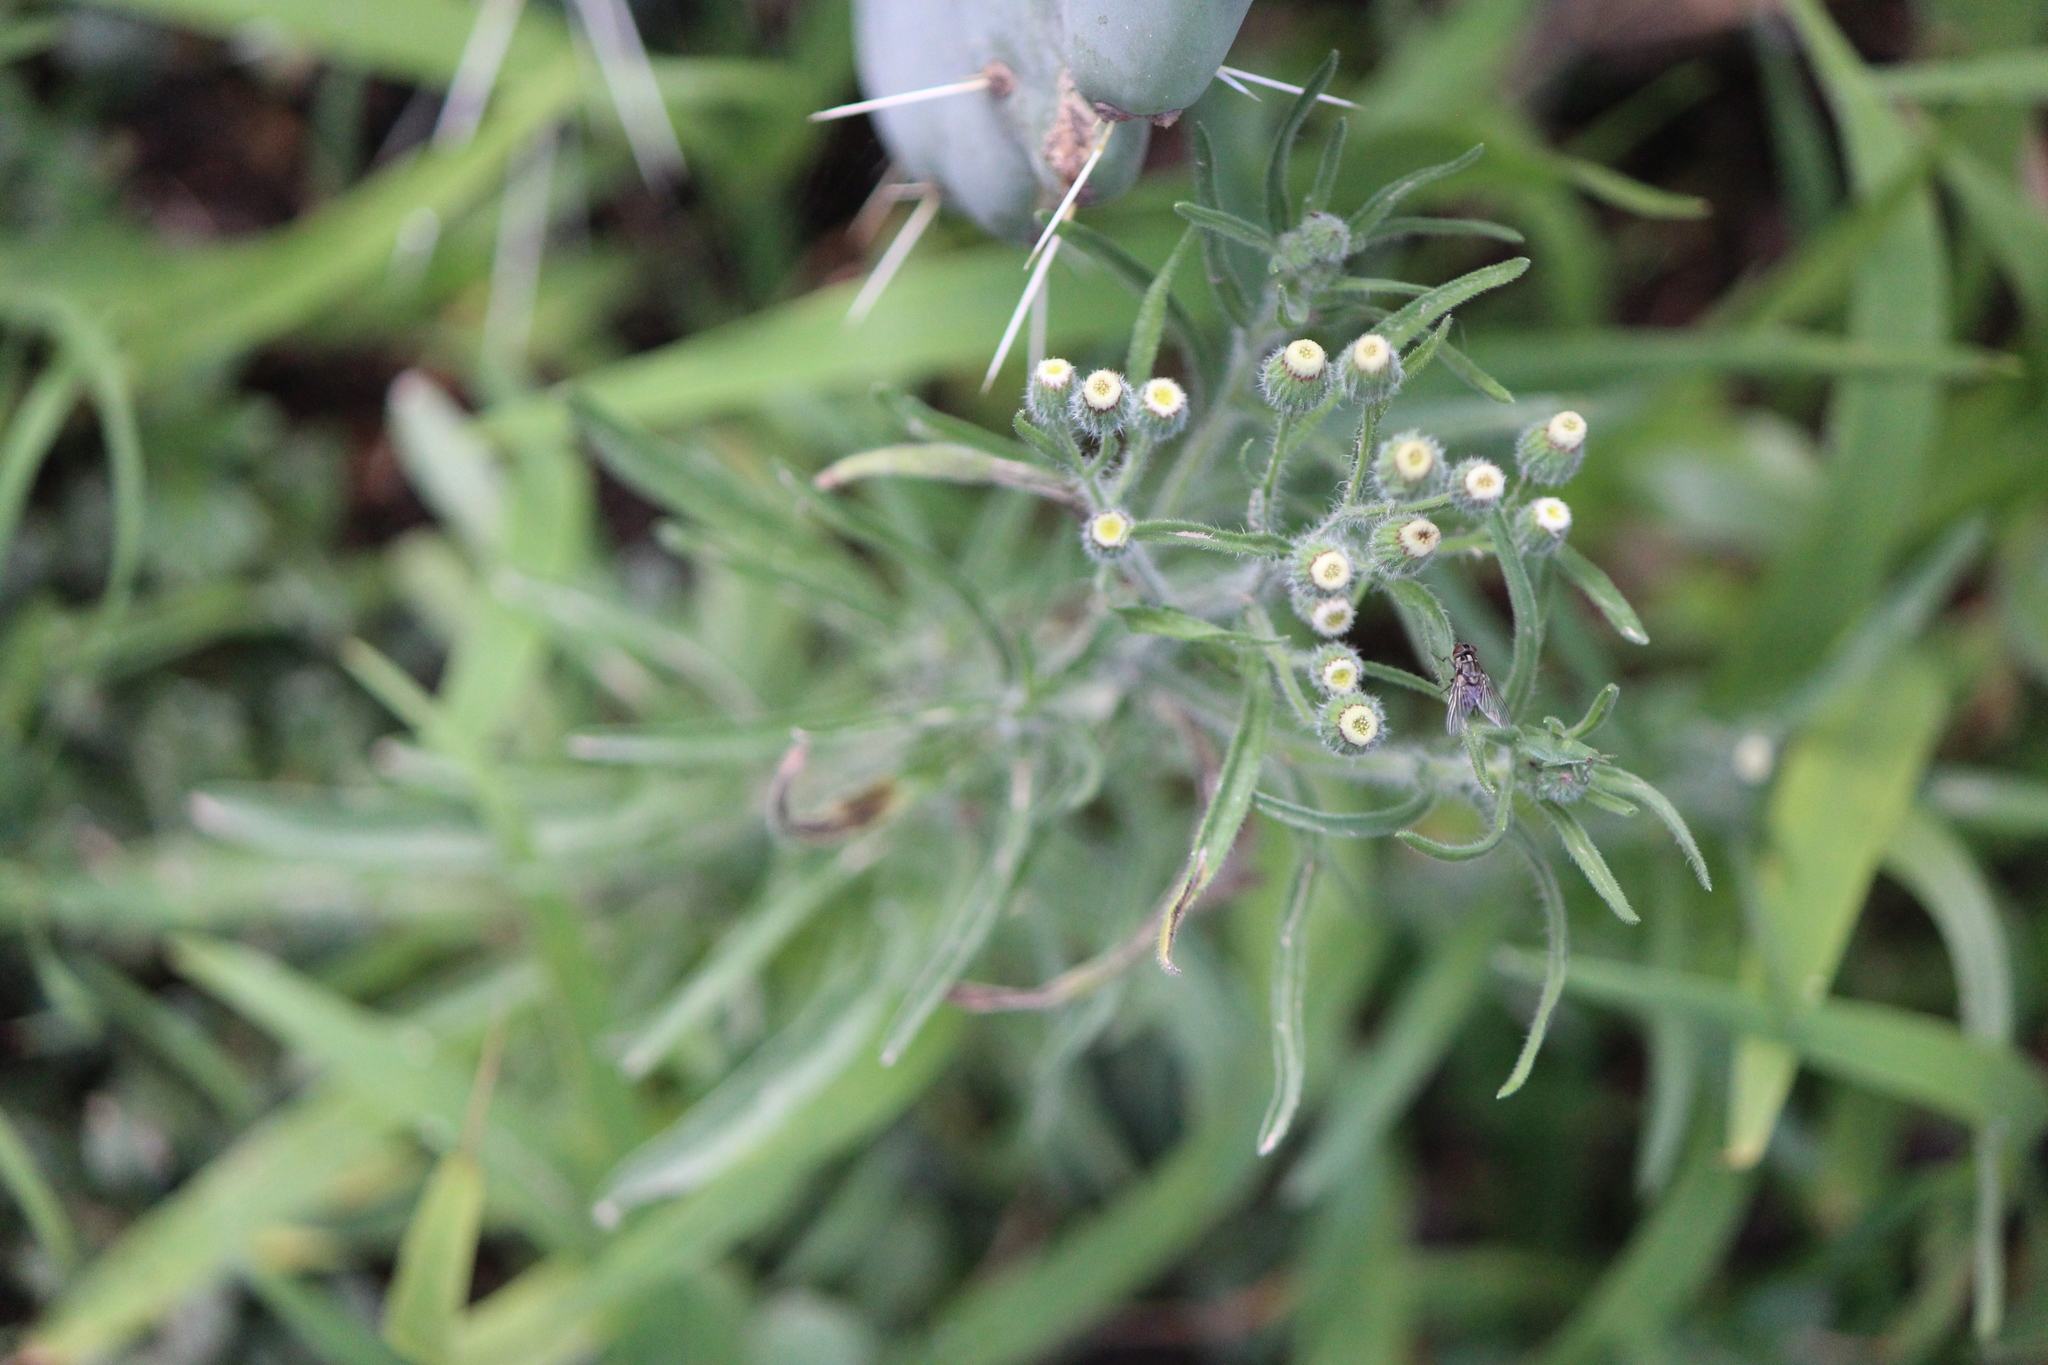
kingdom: Plantae
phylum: Tracheophyta
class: Magnoliopsida
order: Asterales
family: Asteraceae
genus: Erigeron
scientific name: Erigeron bonariensis
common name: Argentine fleabane
